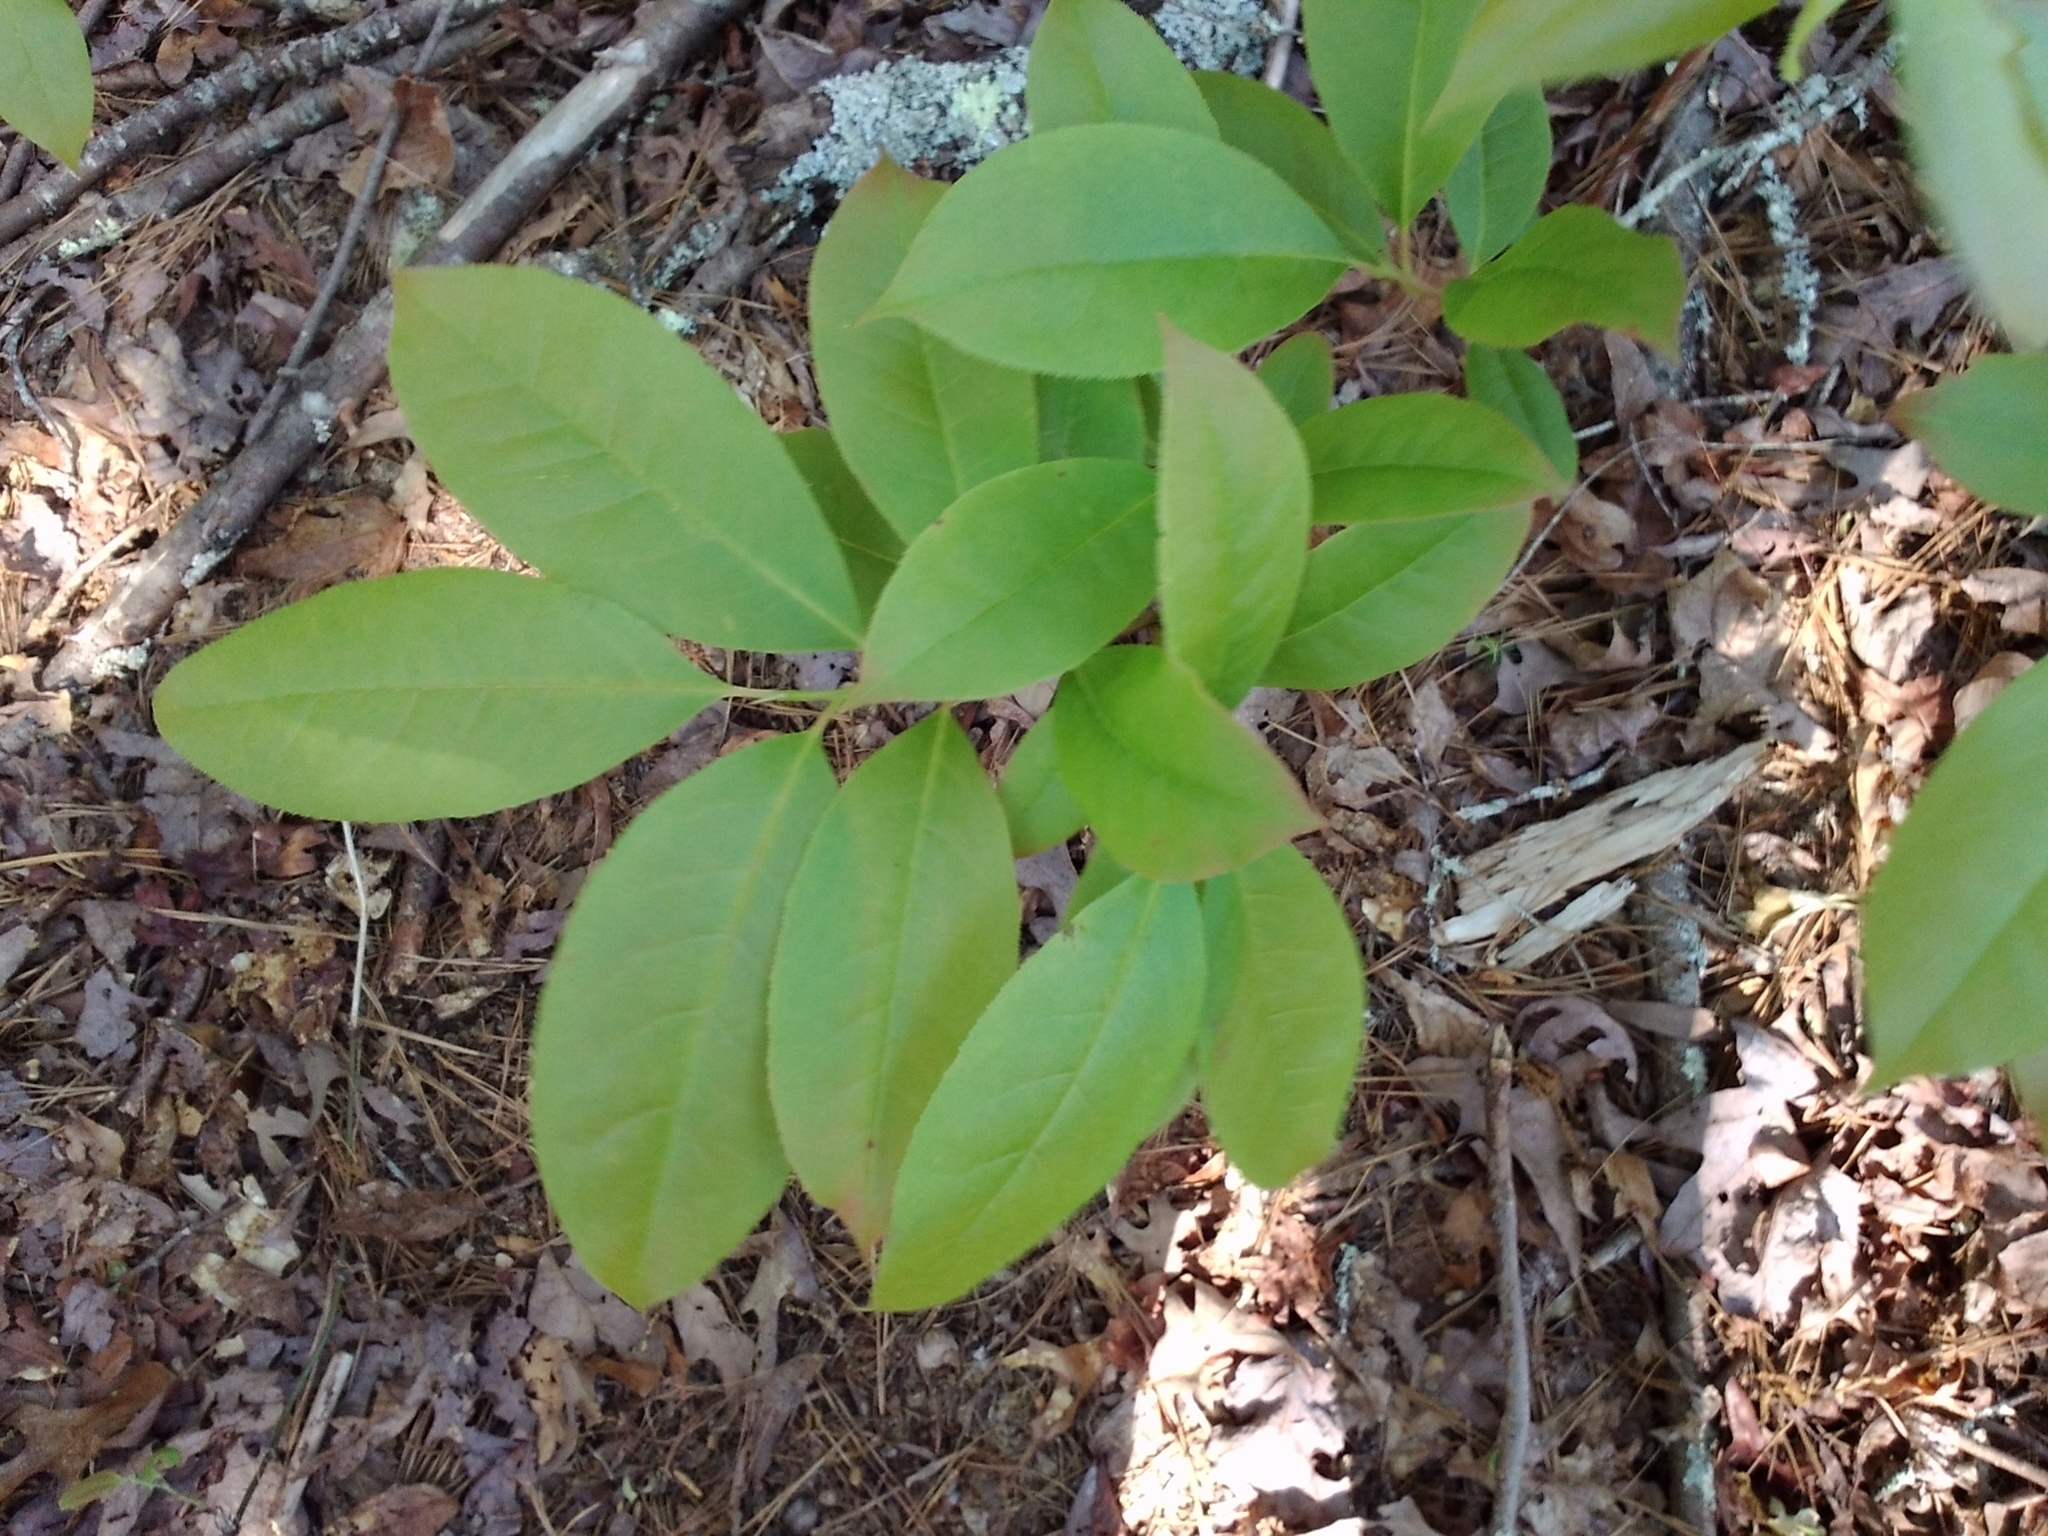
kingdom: Plantae
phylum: Tracheophyta
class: Magnoliopsida
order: Ericales
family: Ericaceae
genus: Oxydendrum
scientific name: Oxydendrum arboreum
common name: Sourwood
